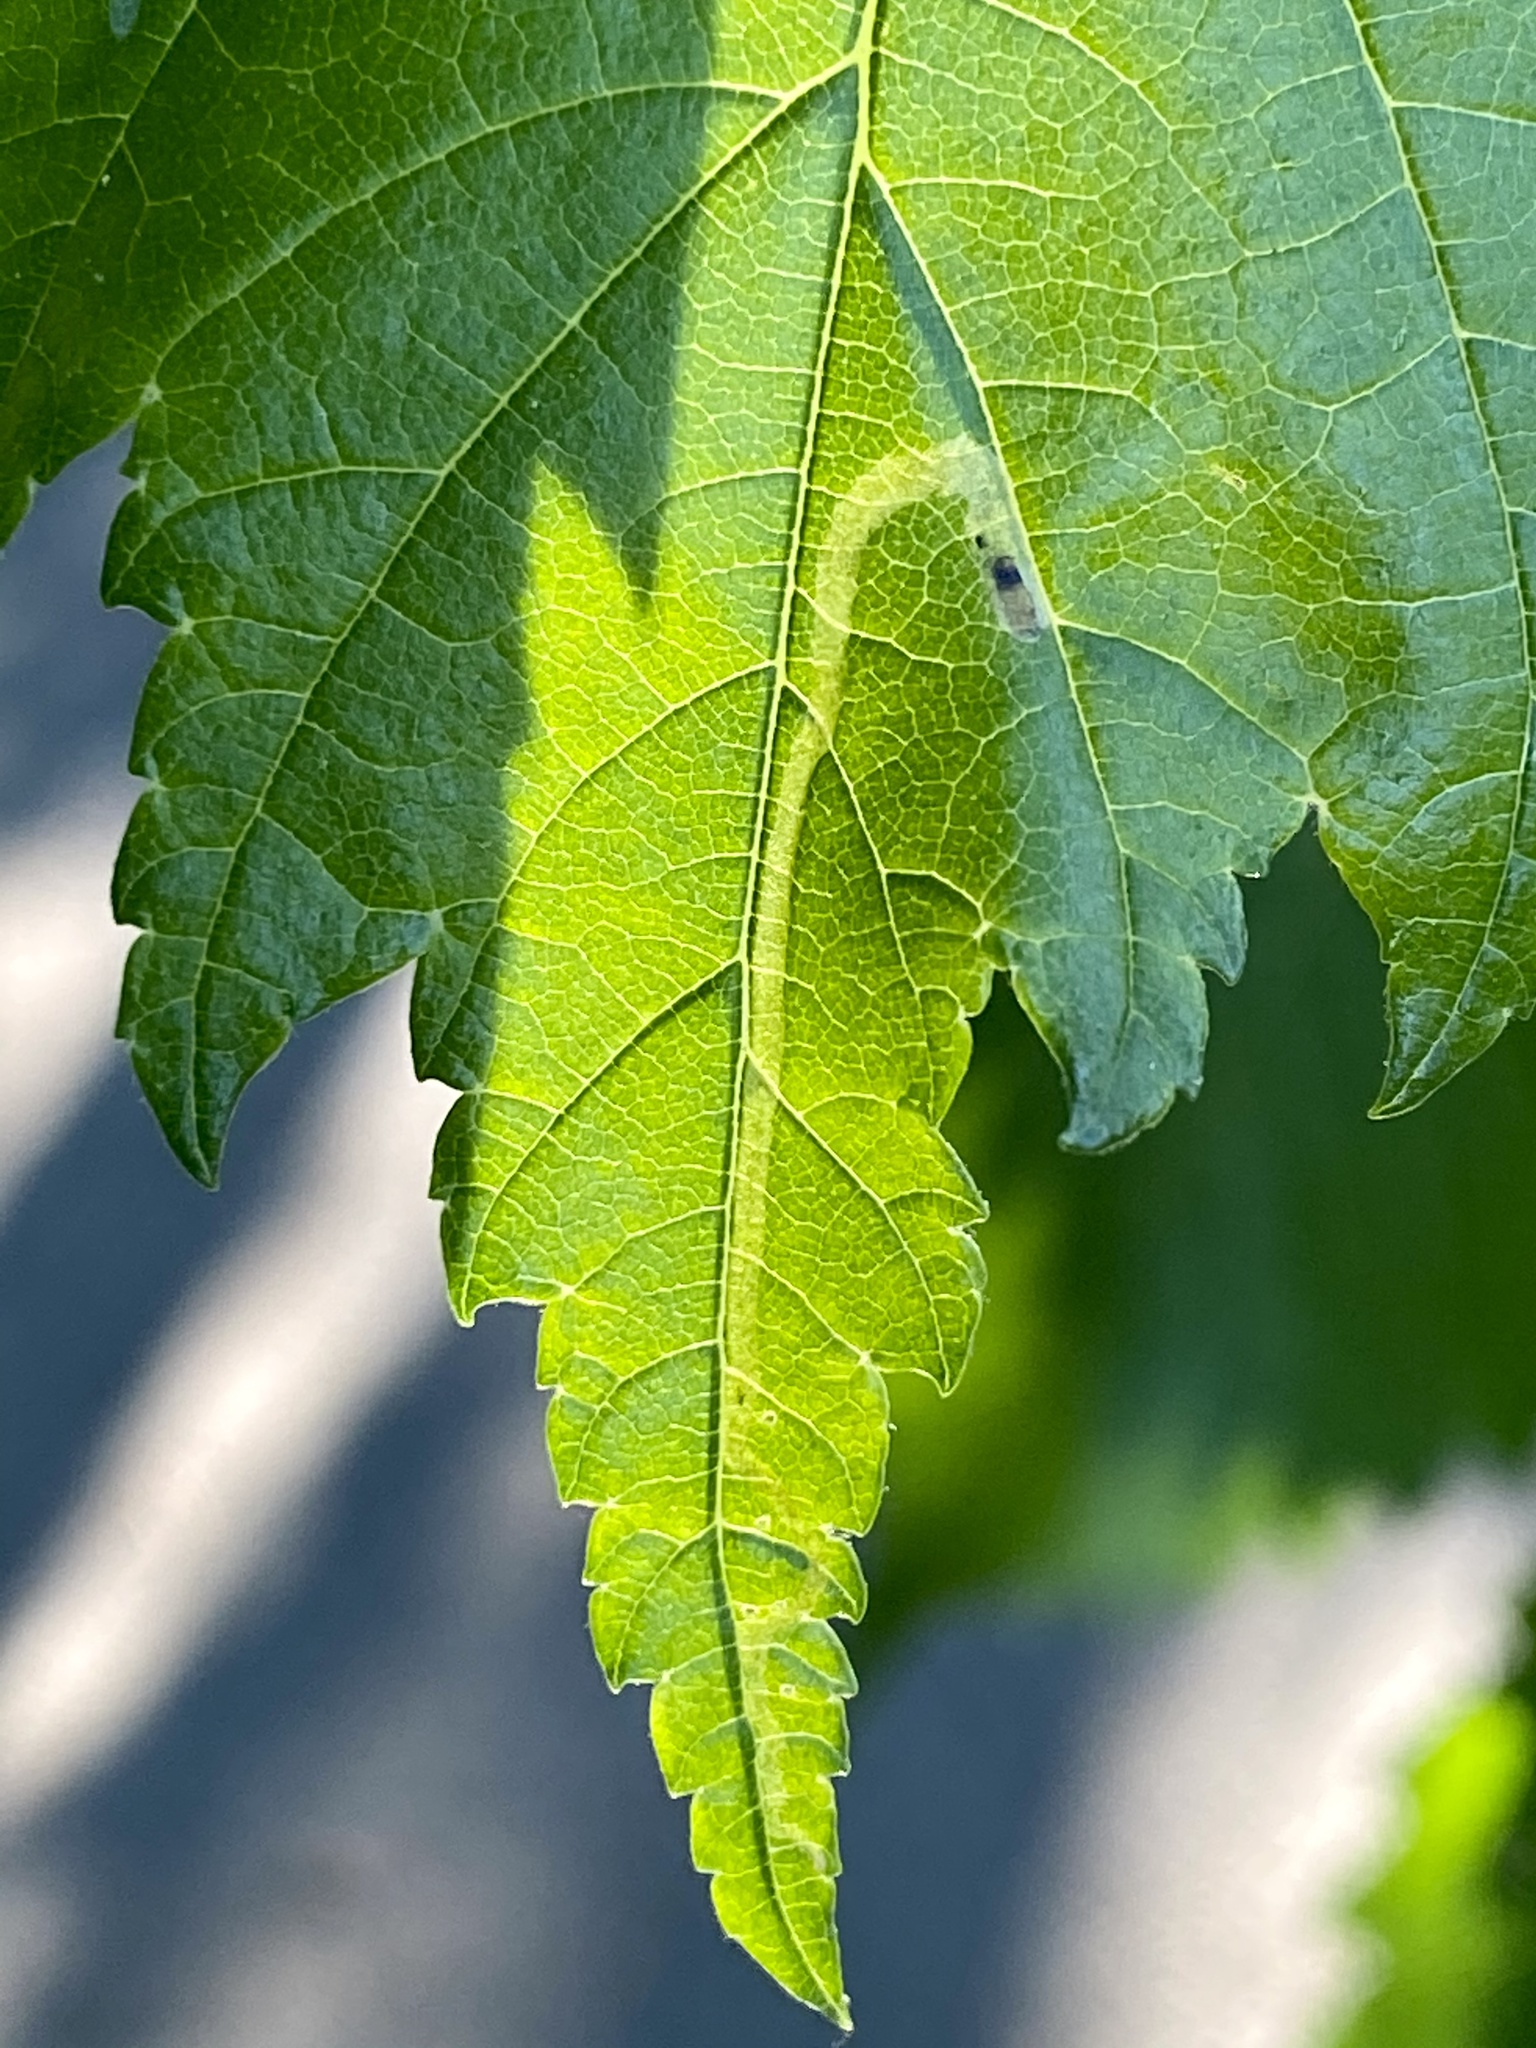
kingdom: Animalia
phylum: Arthropoda
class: Insecta
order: Diptera
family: Agromyzidae
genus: Agromyza
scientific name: Agromyza aristata
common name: Elm agromyzid leafminer
